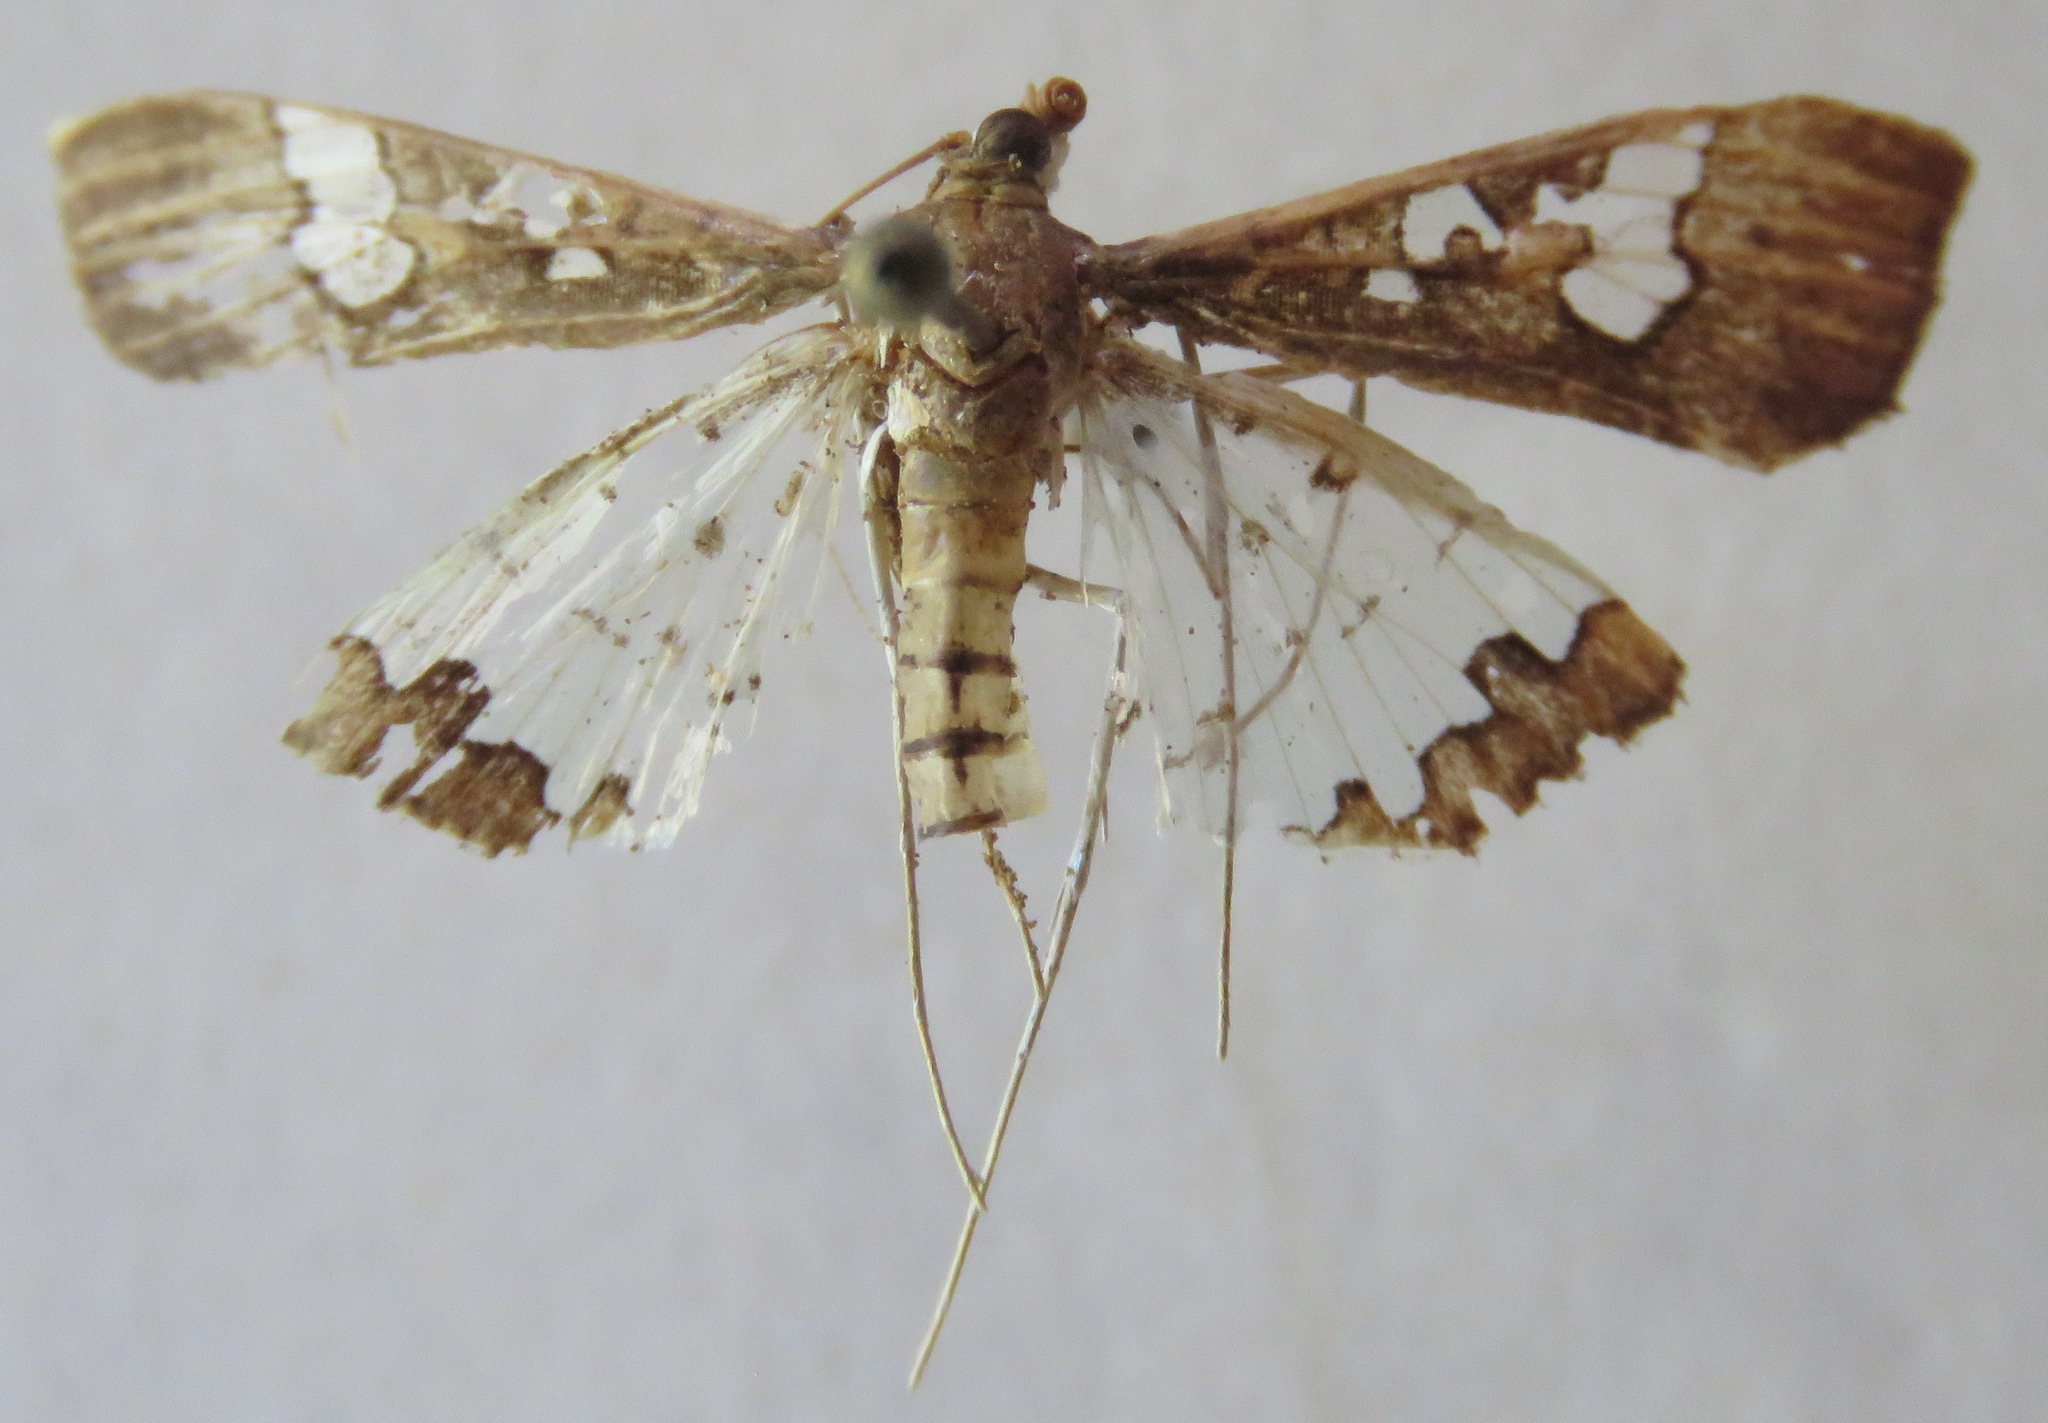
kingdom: Animalia
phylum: Arthropoda
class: Insecta
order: Lepidoptera
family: Crambidae
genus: Maruca
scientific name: Maruca vitrata
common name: Maruca pod borer
